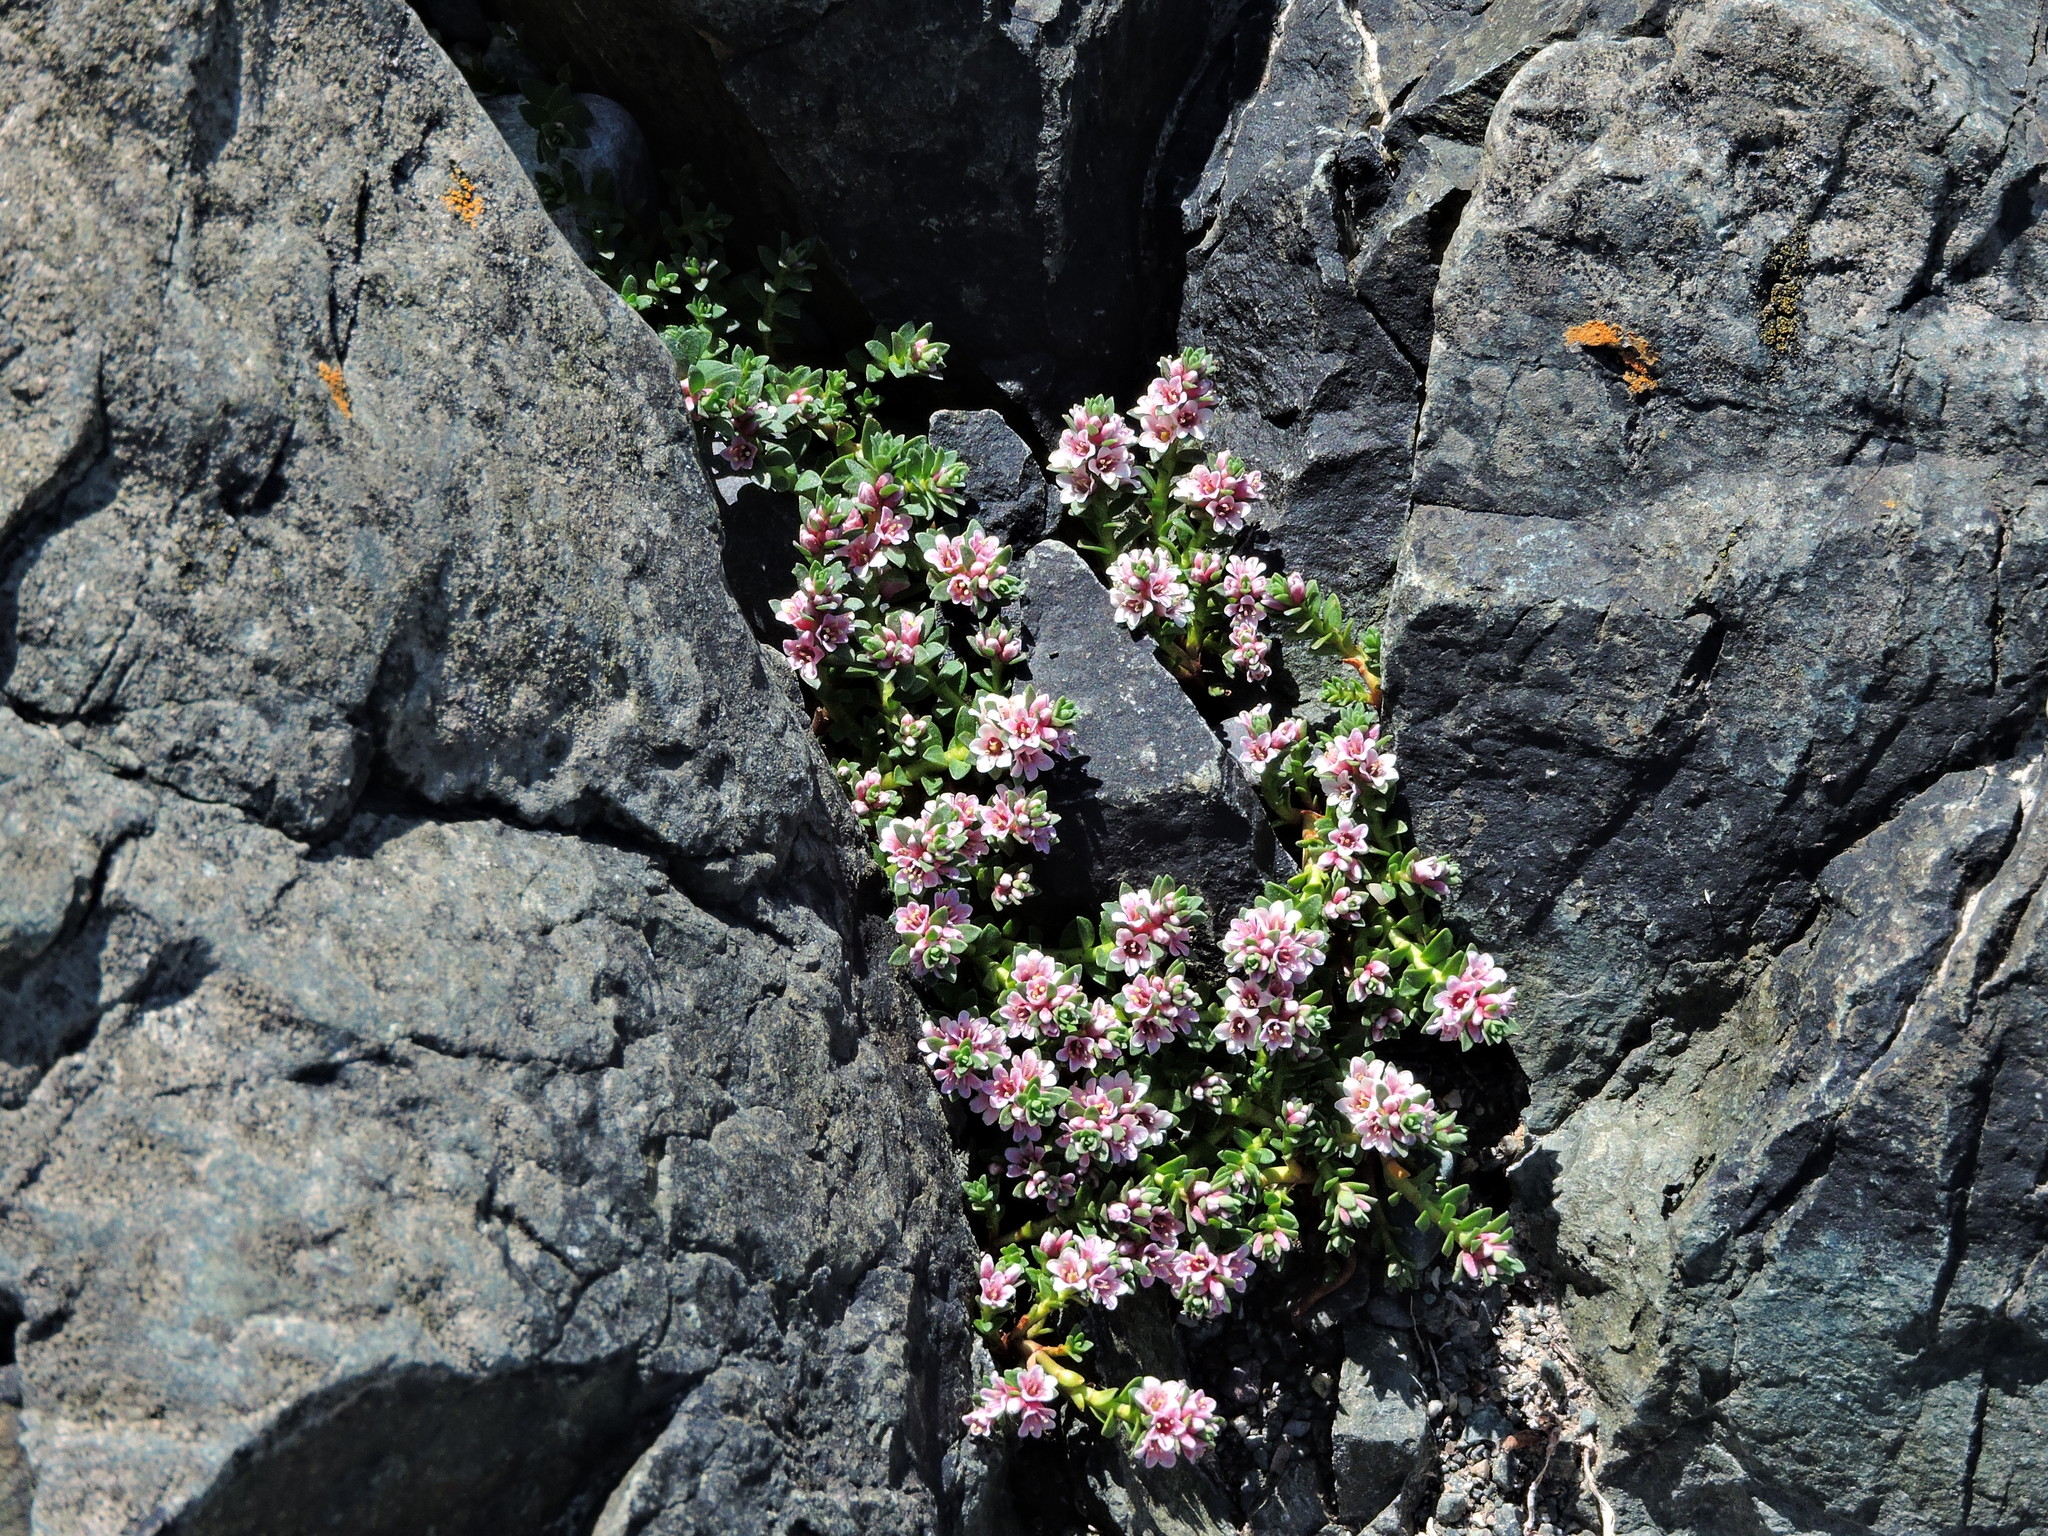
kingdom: Plantae
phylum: Tracheophyta
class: Magnoliopsida
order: Ericales
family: Primulaceae
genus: Lysimachia
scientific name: Lysimachia maritima
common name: Sea milkwort
